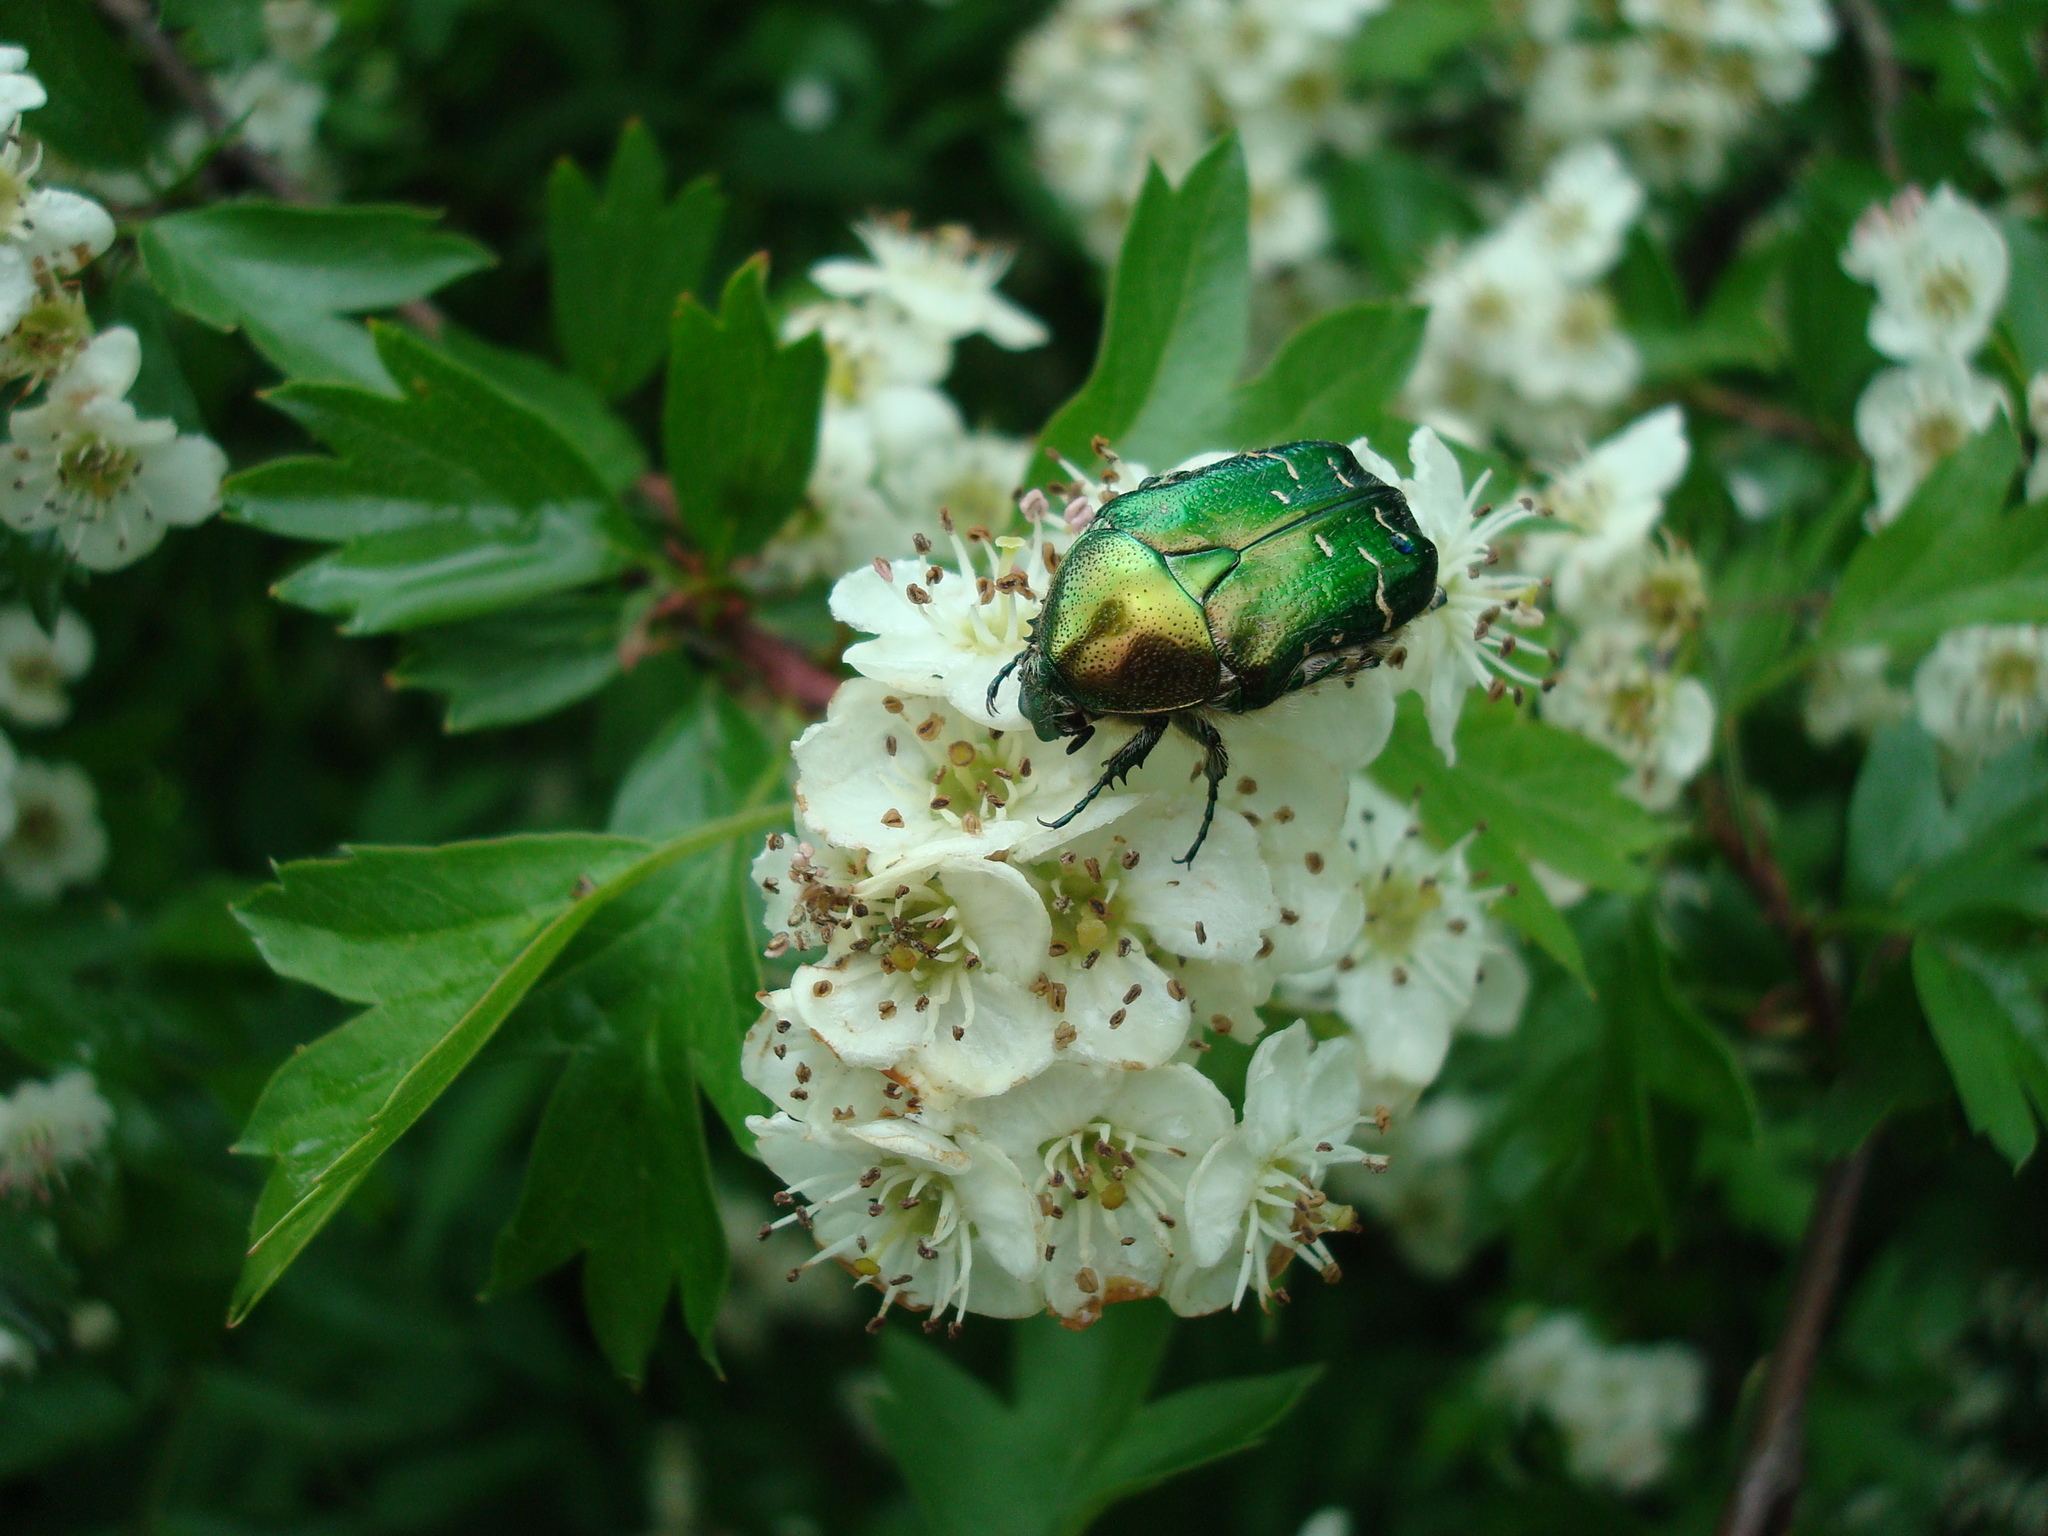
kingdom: Animalia
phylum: Arthropoda
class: Insecta
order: Coleoptera
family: Scarabaeidae
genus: Cetonia
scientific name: Cetonia aurata
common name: Rose chafer
